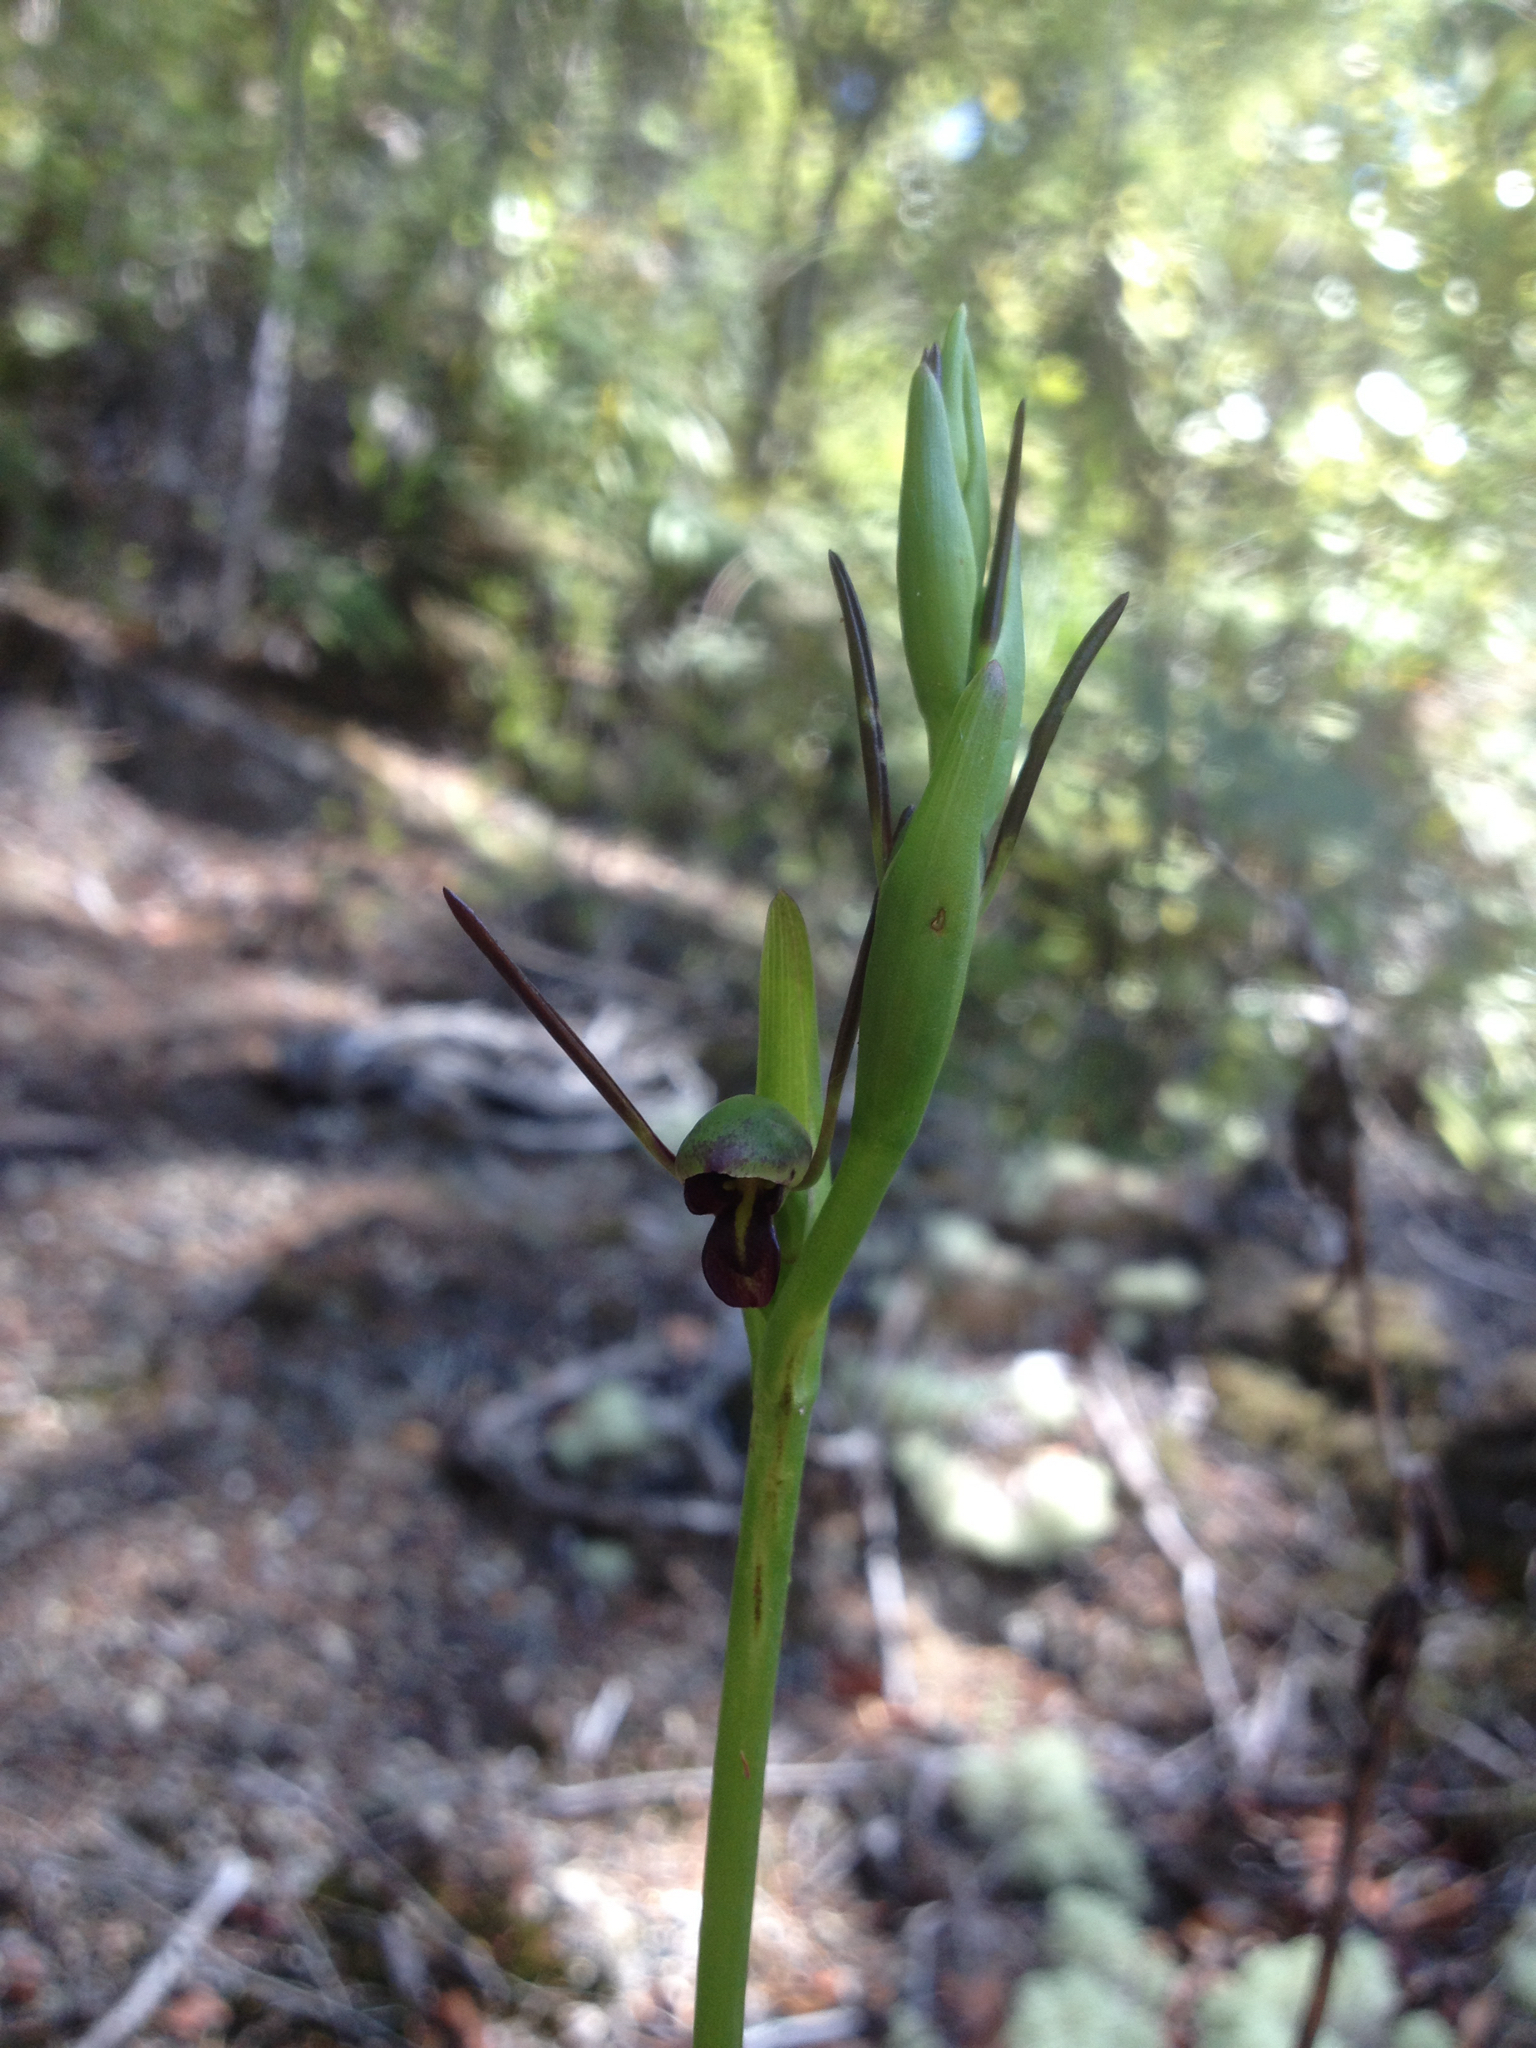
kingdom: Plantae
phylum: Tracheophyta
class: Liliopsida
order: Asparagales
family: Orchidaceae
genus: Orthoceras
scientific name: Orthoceras novae-zeelandiae
